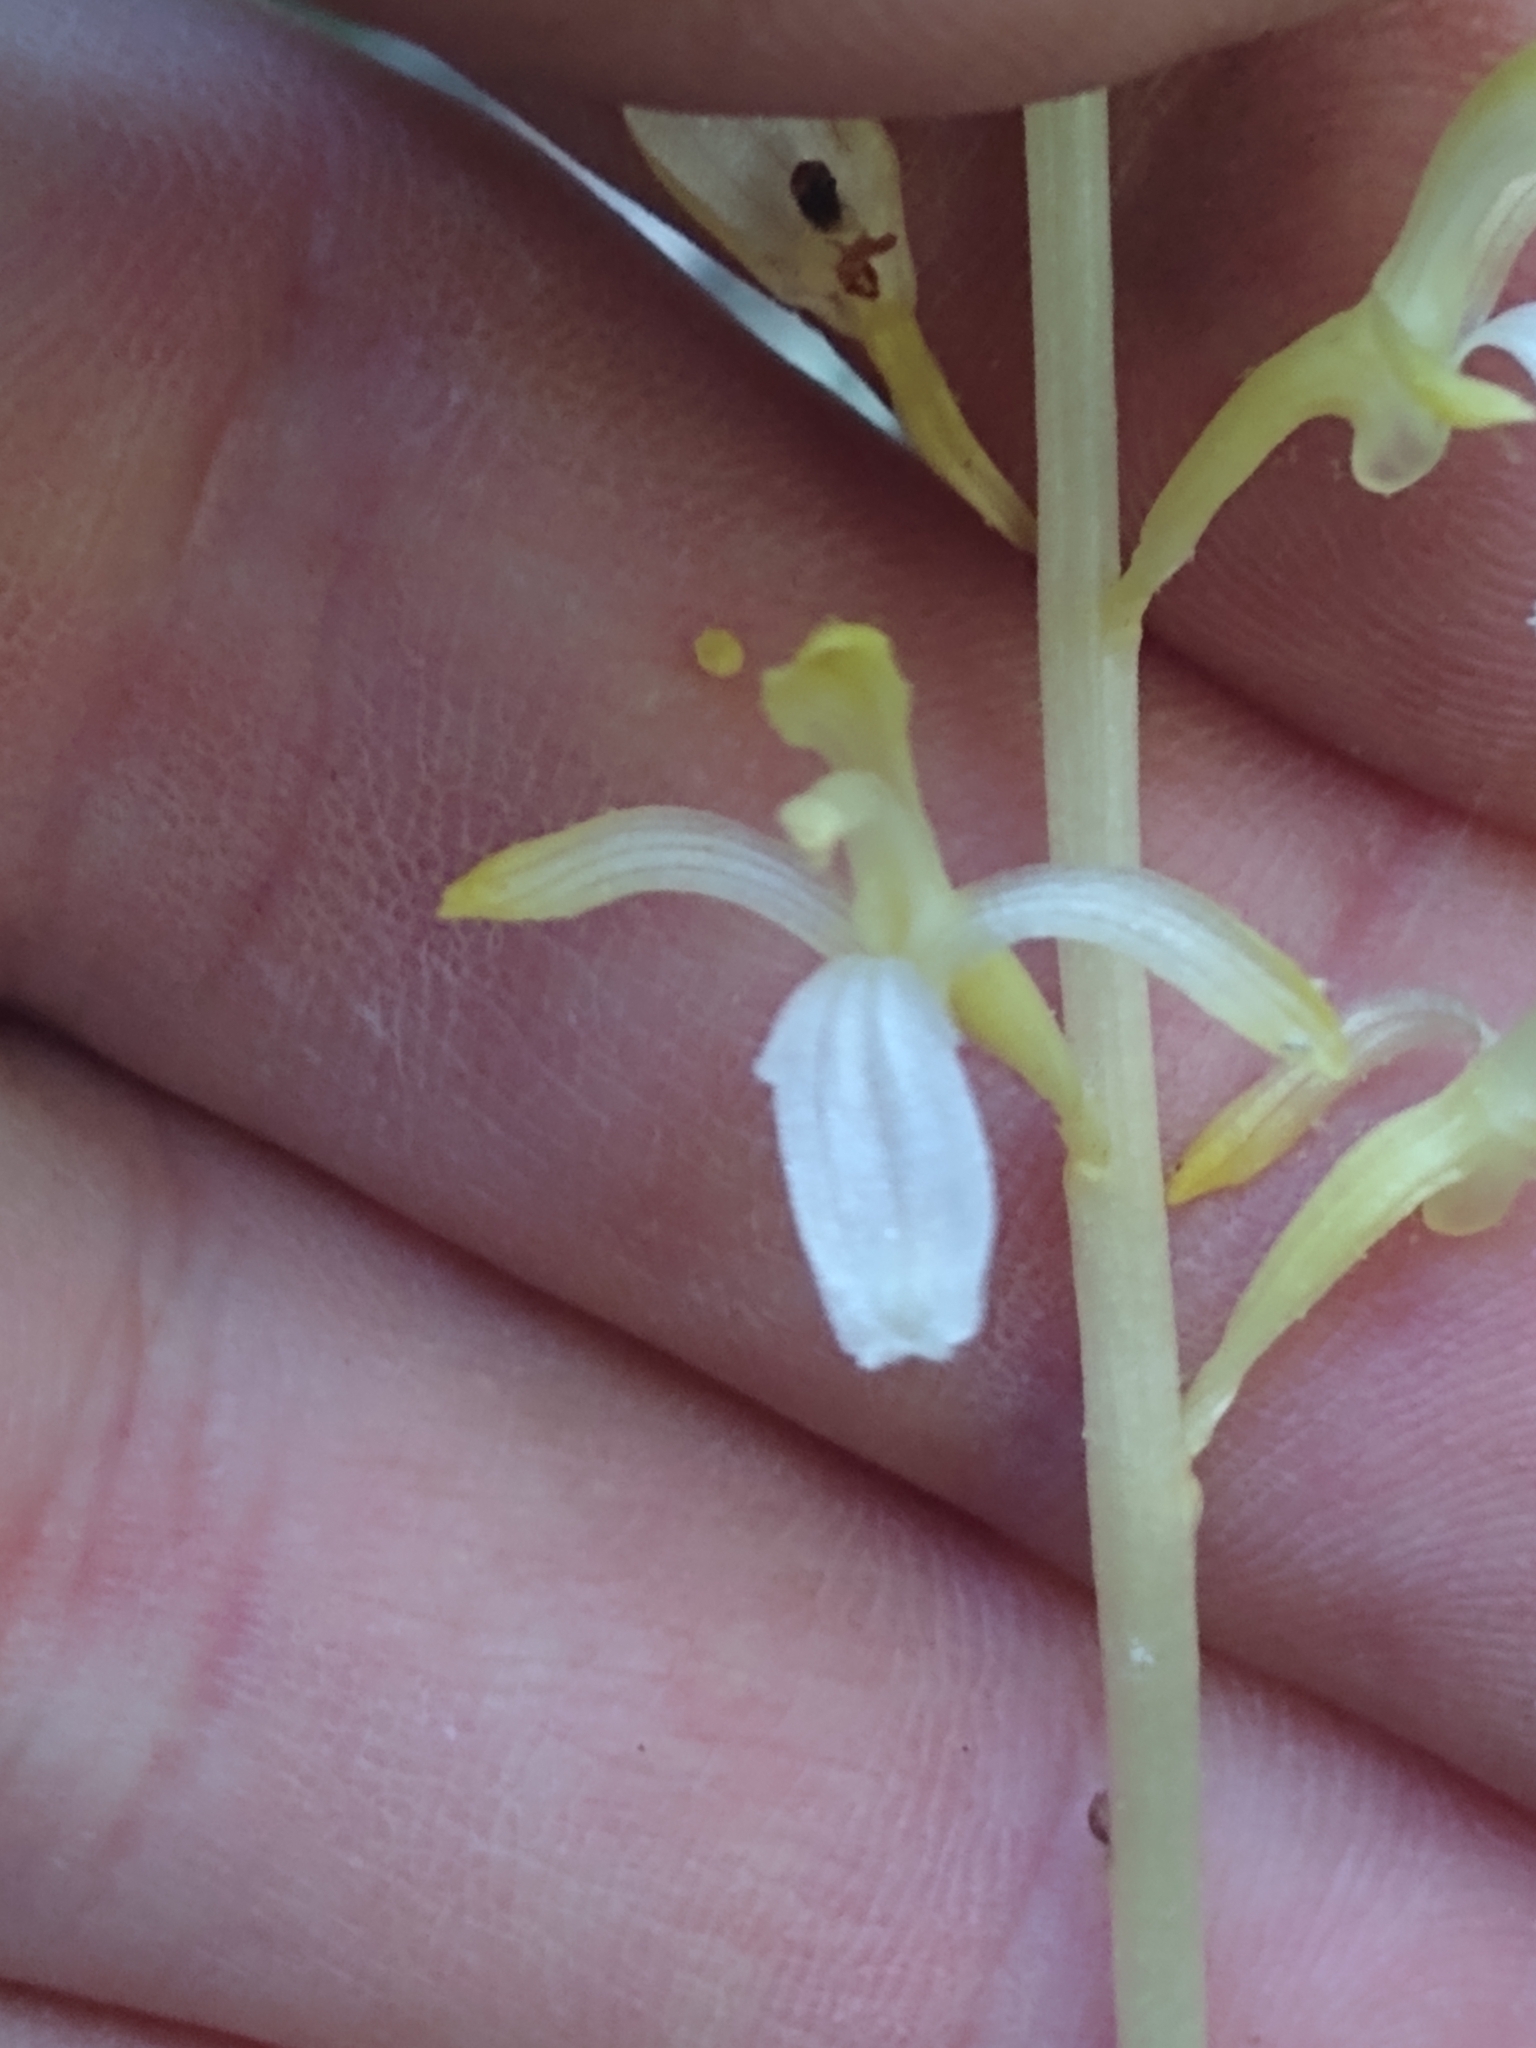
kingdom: Plantae
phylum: Tracheophyta
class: Liliopsida
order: Asparagales
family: Orchidaceae
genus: Corallorhiza
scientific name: Corallorhiza mertensiana
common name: Pacific coralroot
